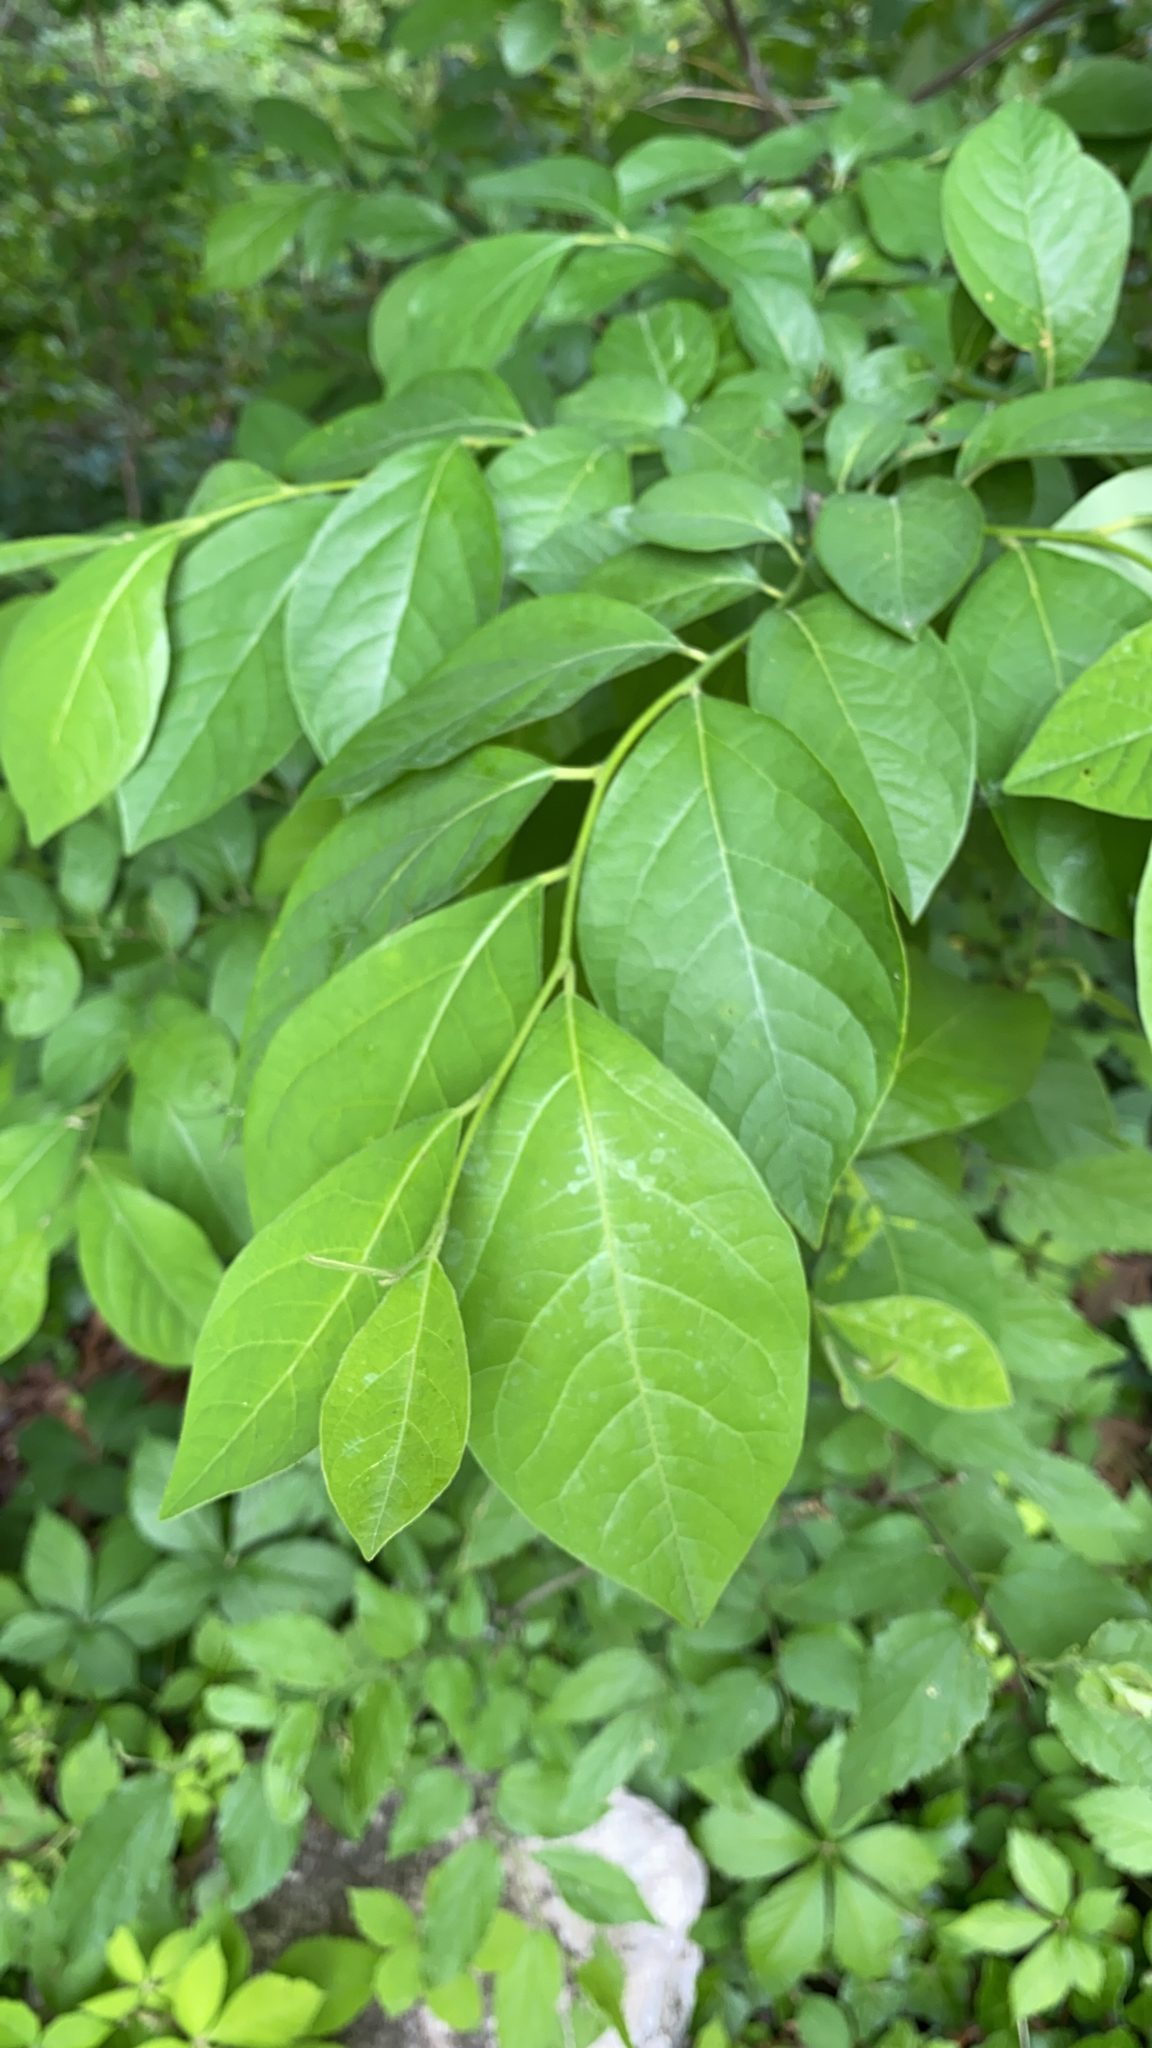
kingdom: Plantae
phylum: Tracheophyta
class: Magnoliopsida
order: Laurales
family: Lauraceae
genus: Lindera
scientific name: Lindera benzoin
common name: Spicebush
